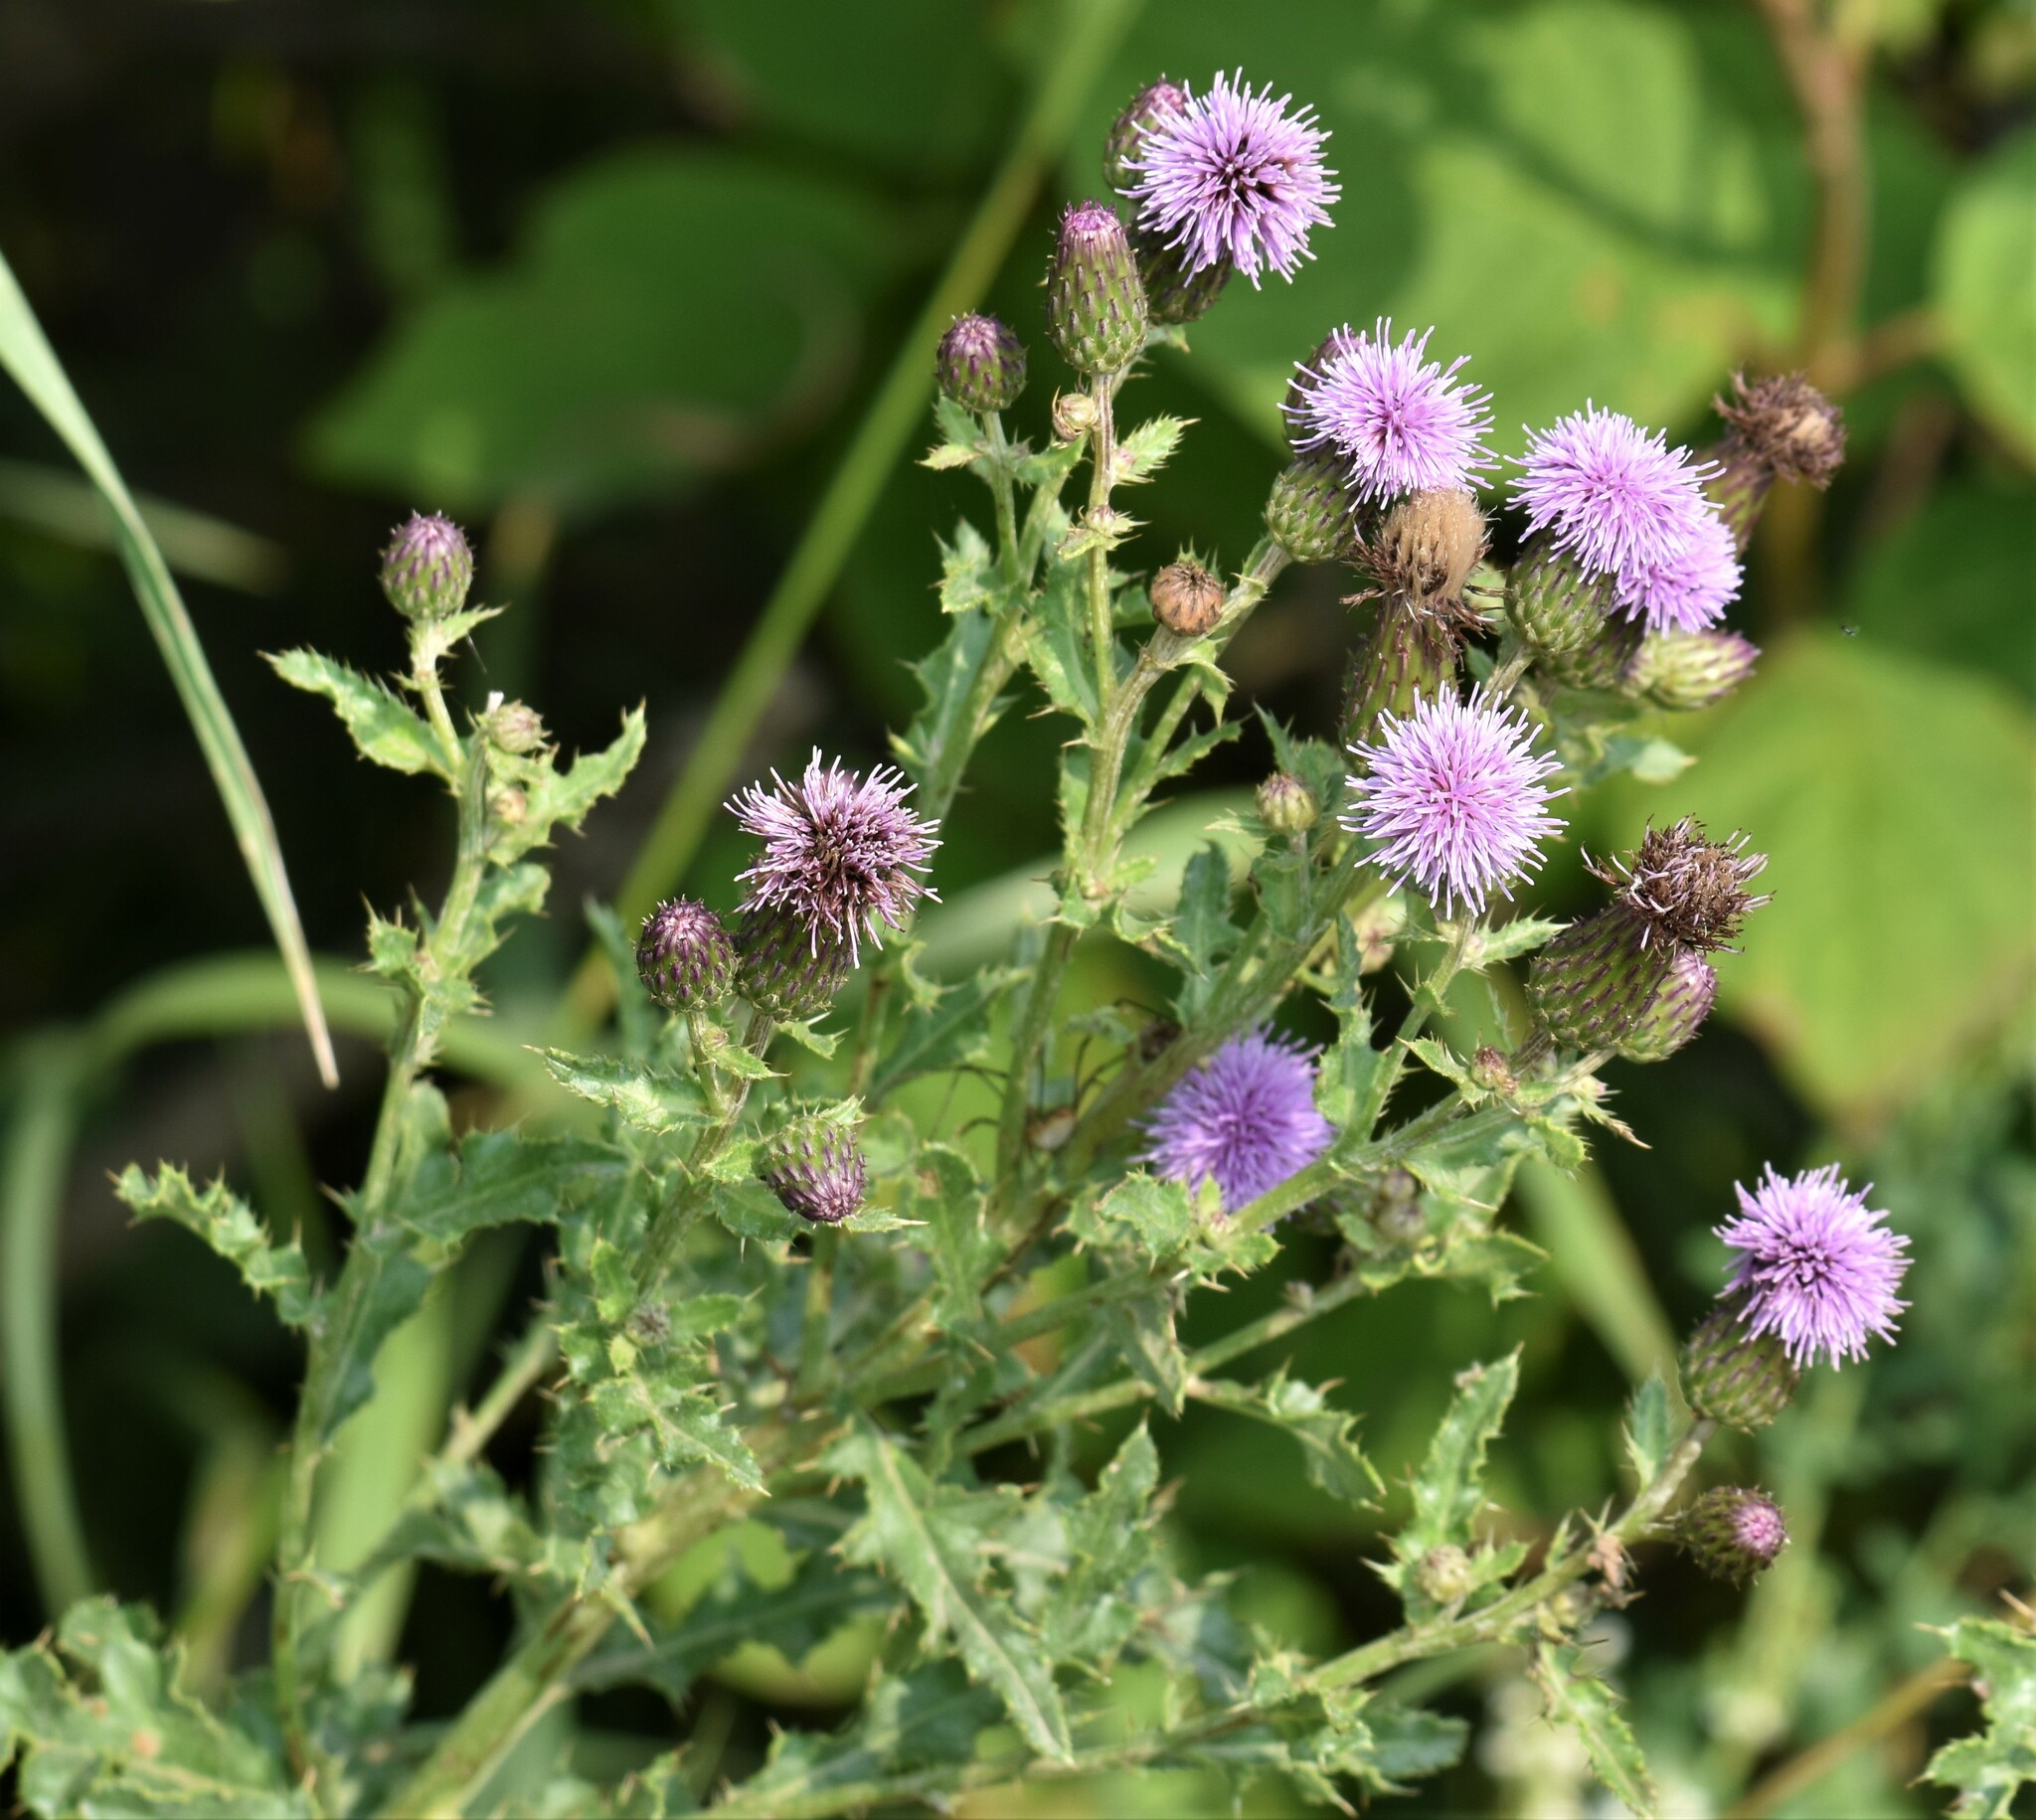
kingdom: Plantae
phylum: Tracheophyta
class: Magnoliopsida
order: Asterales
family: Asteraceae
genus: Cirsium
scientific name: Cirsium arvense
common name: Creeping thistle
